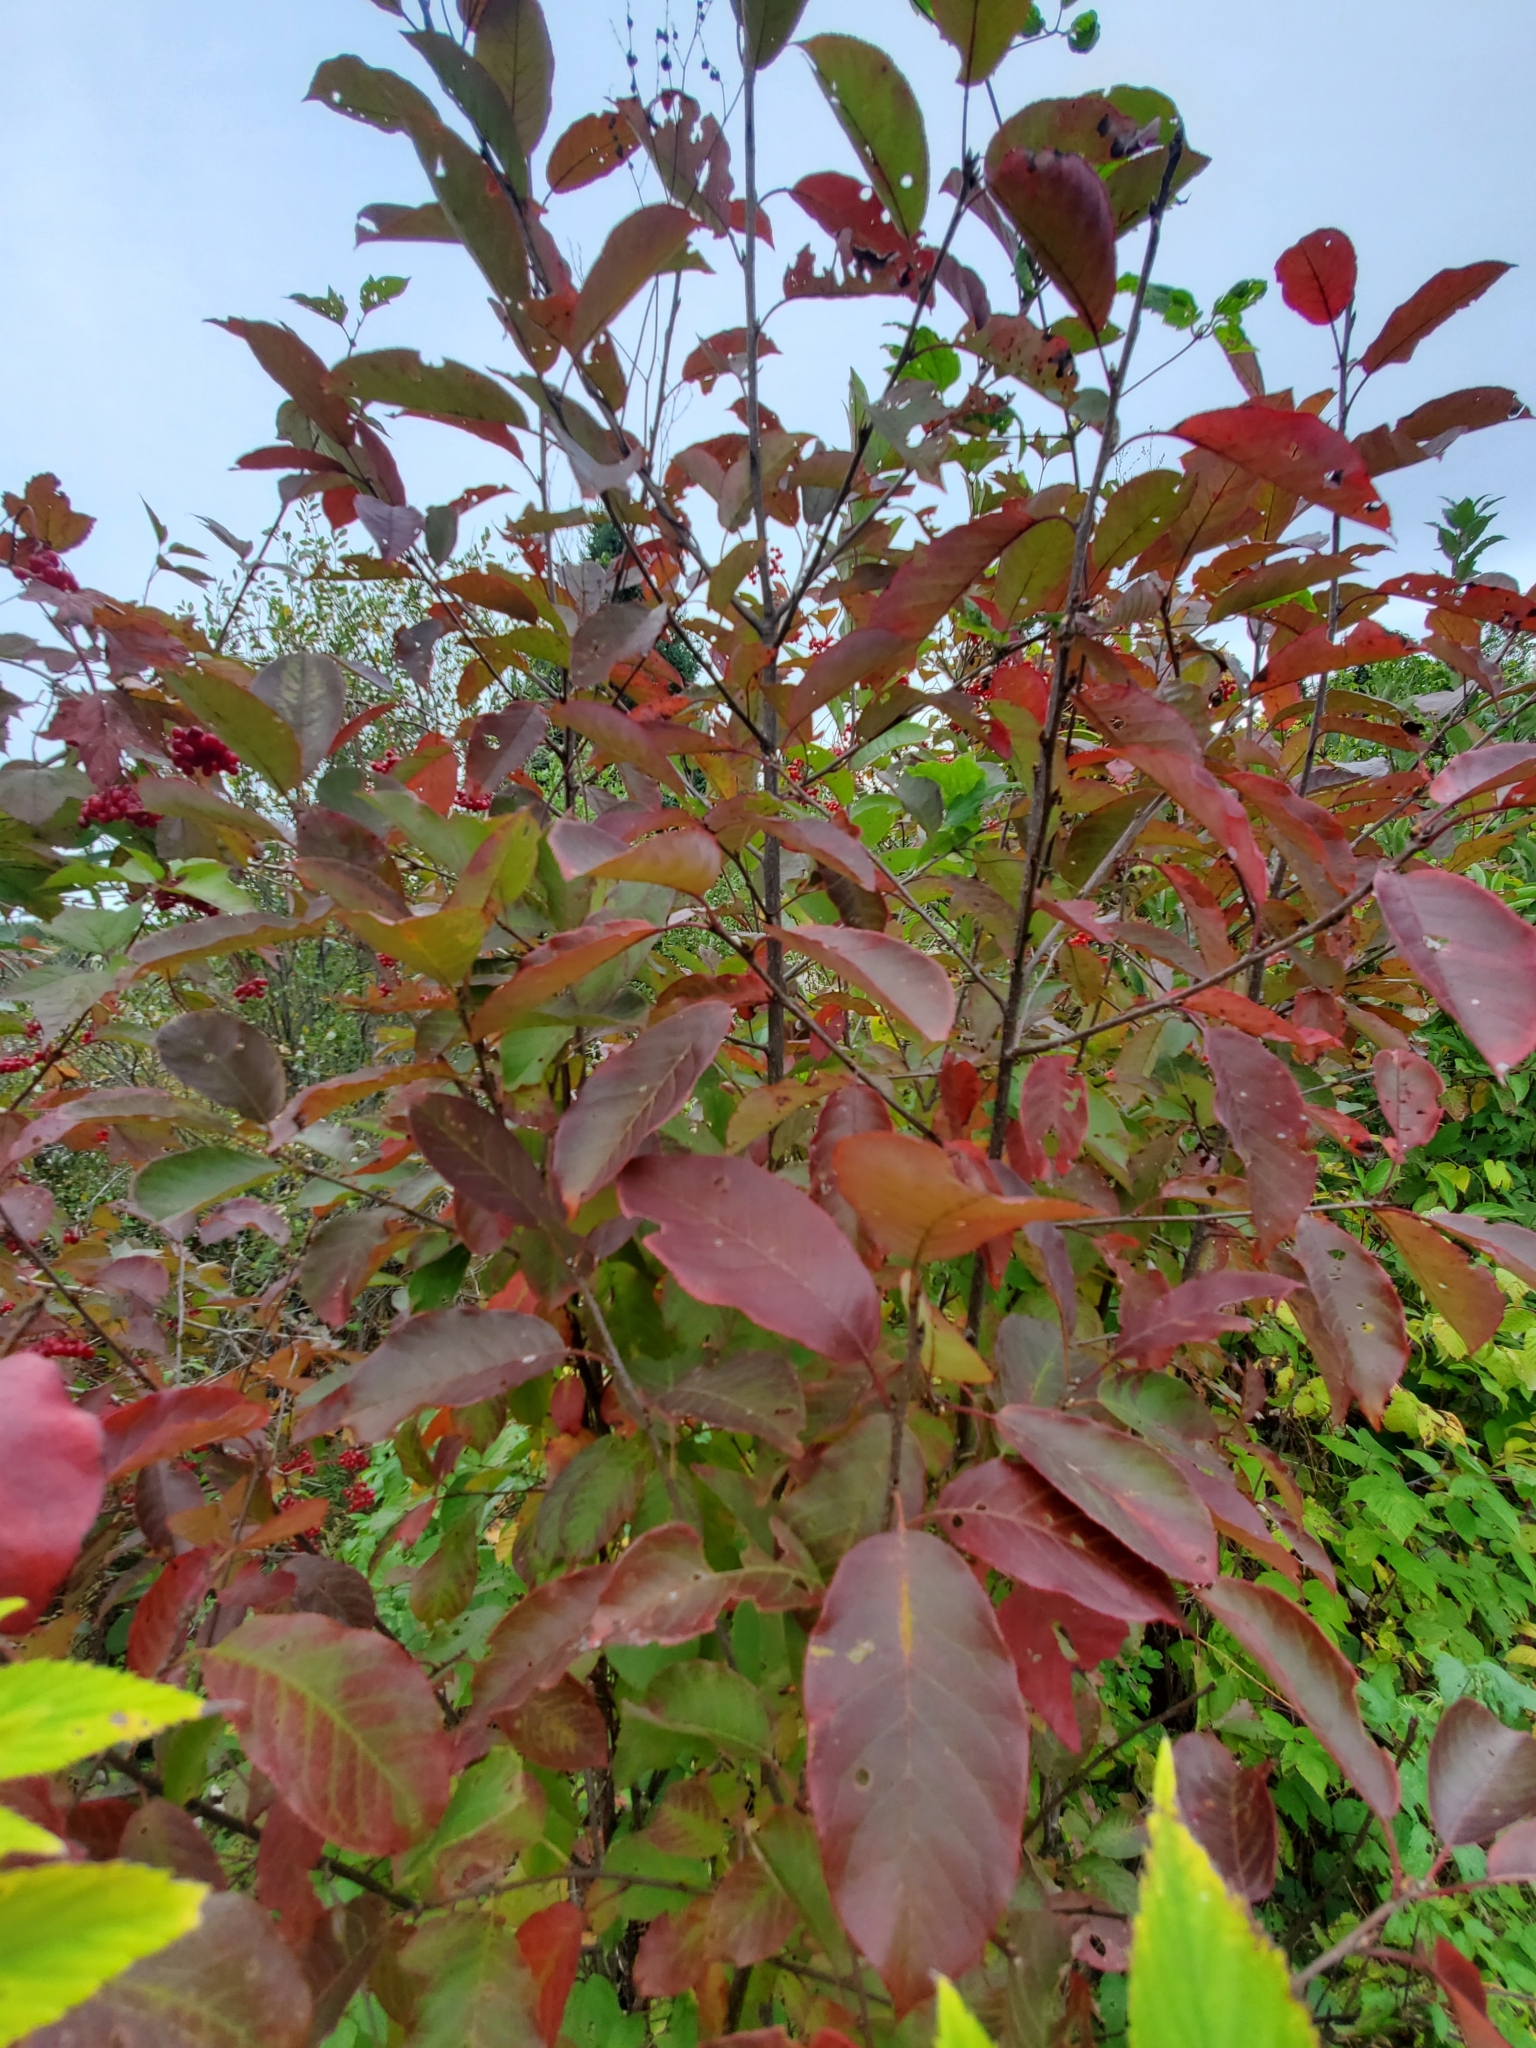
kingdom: Plantae
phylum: Tracheophyta
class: Magnoliopsida
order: Rosales
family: Rosaceae
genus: Prunus
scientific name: Prunus virginiana
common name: Chokecherry
